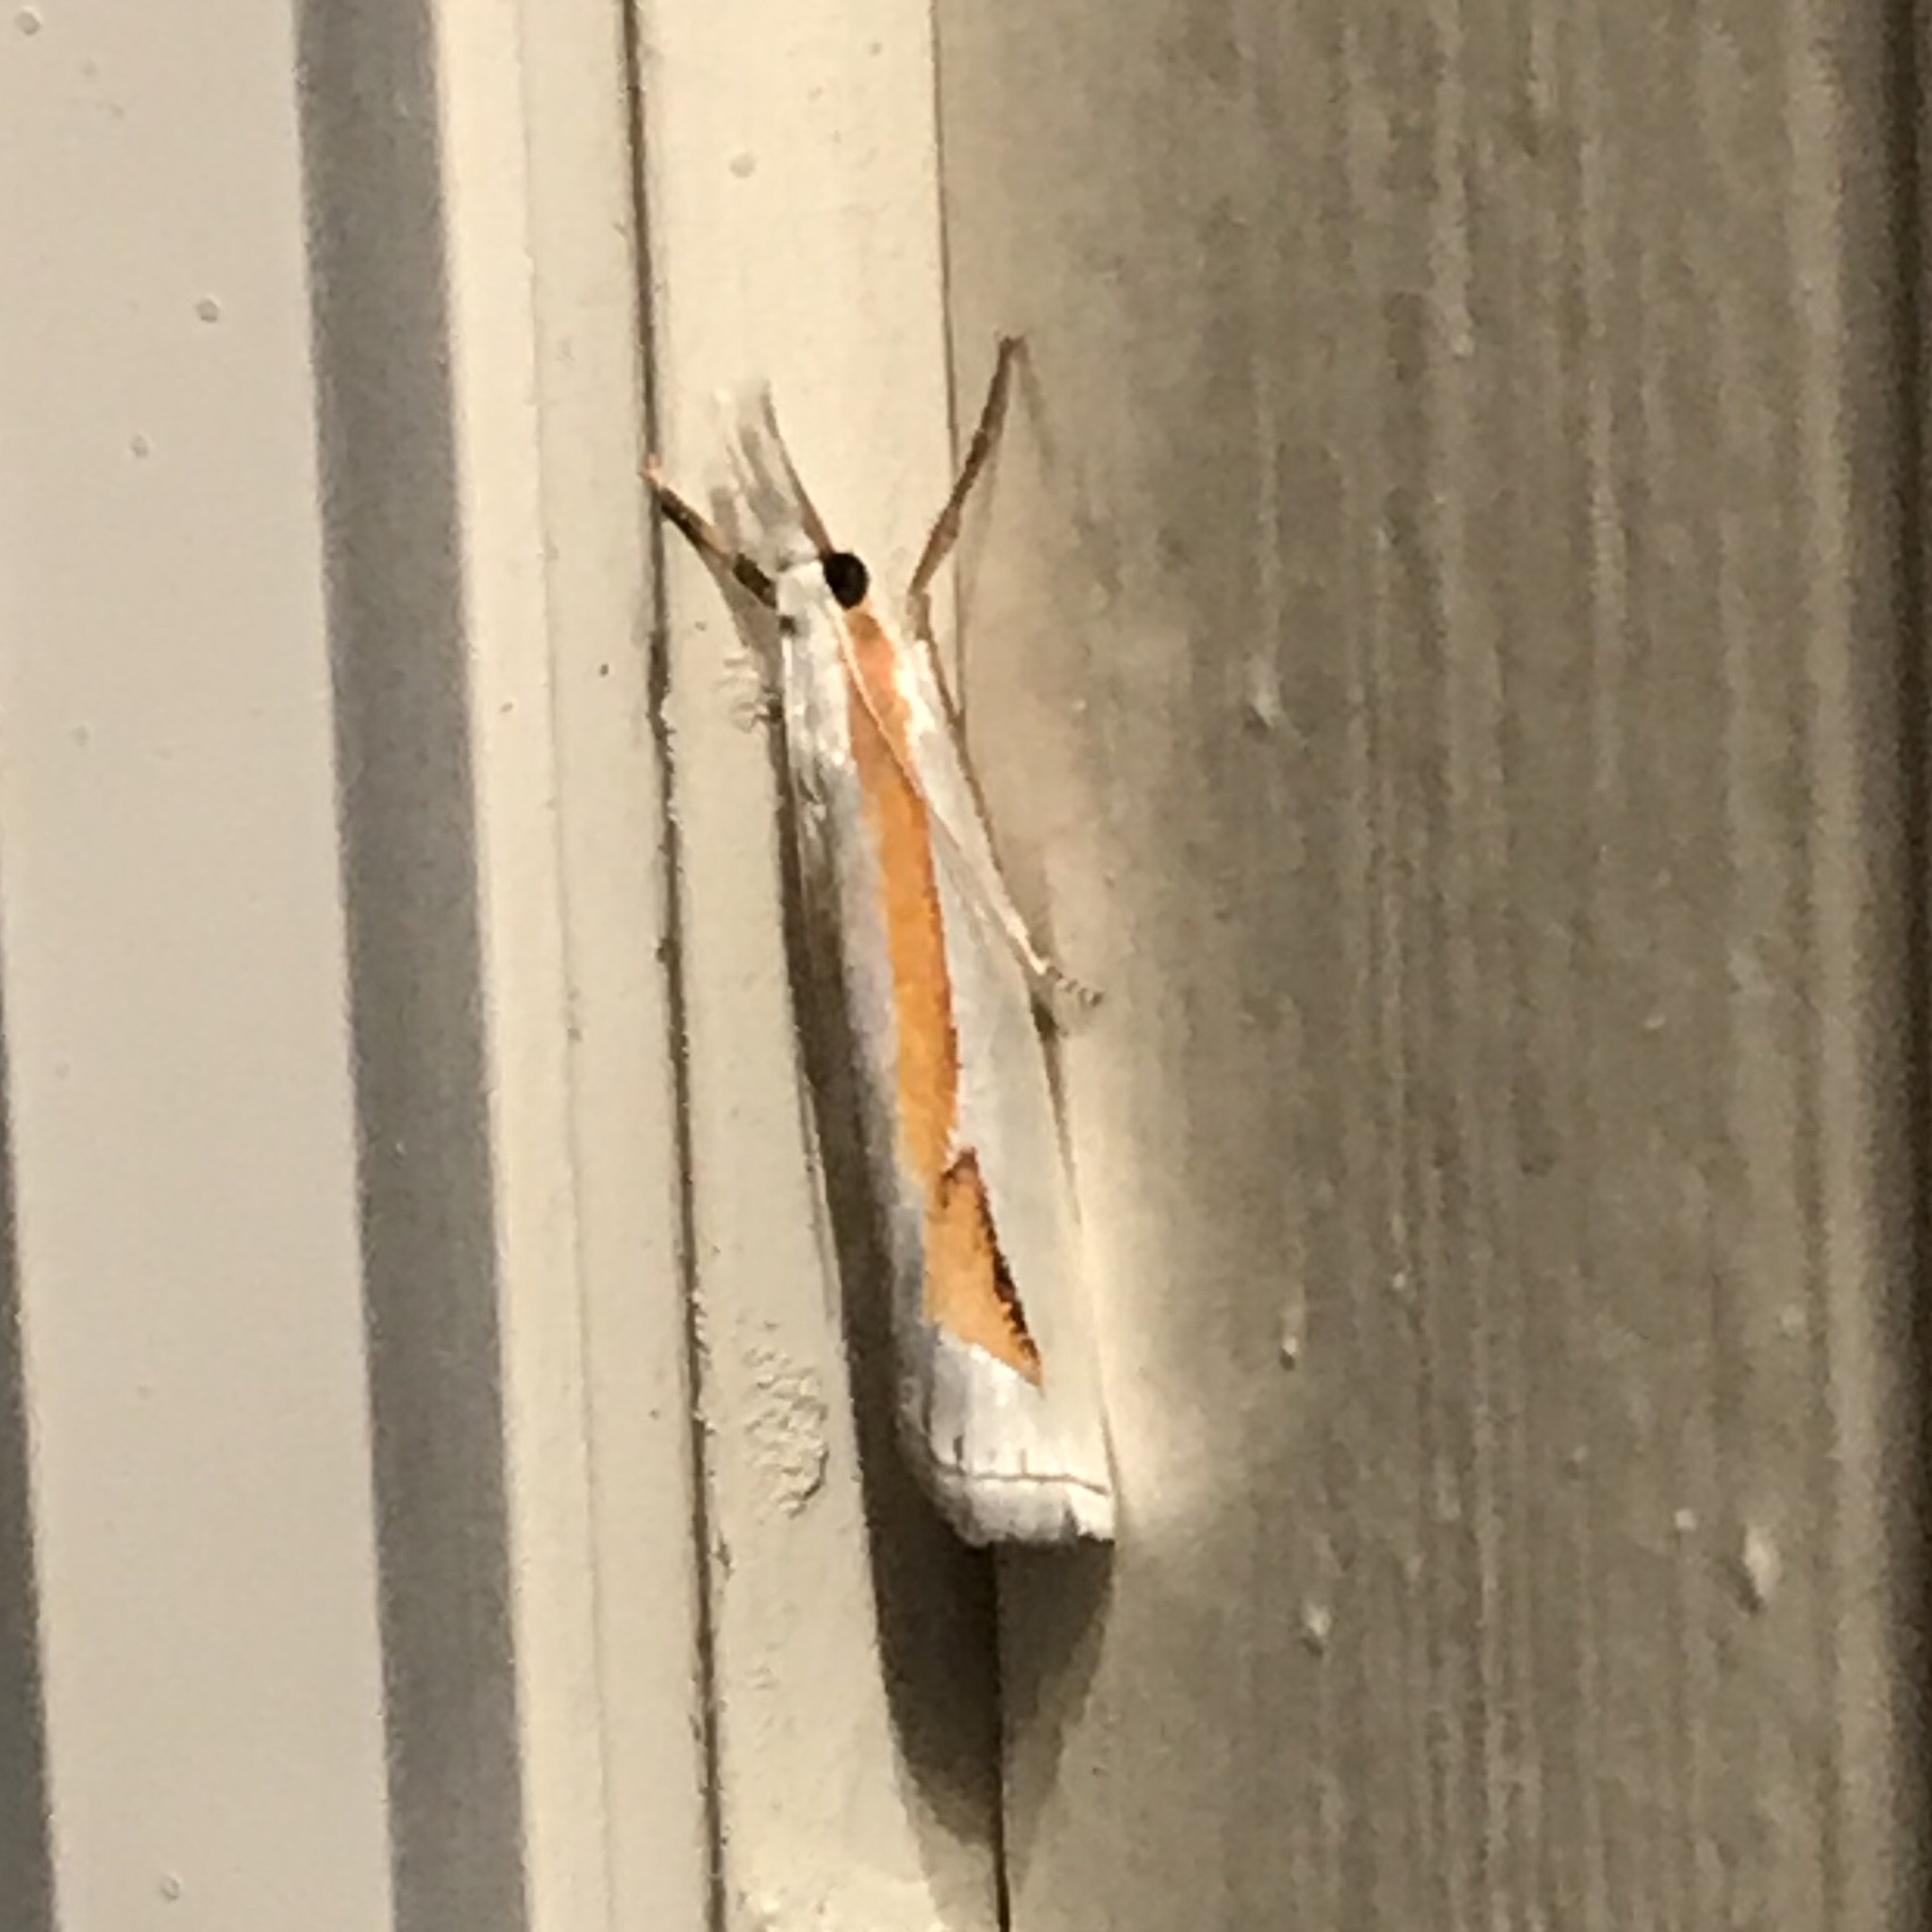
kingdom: Animalia
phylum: Arthropoda
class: Insecta
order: Lepidoptera
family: Crambidae
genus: Crambus
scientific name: Crambus girardellus
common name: Girard's grass-veneer
